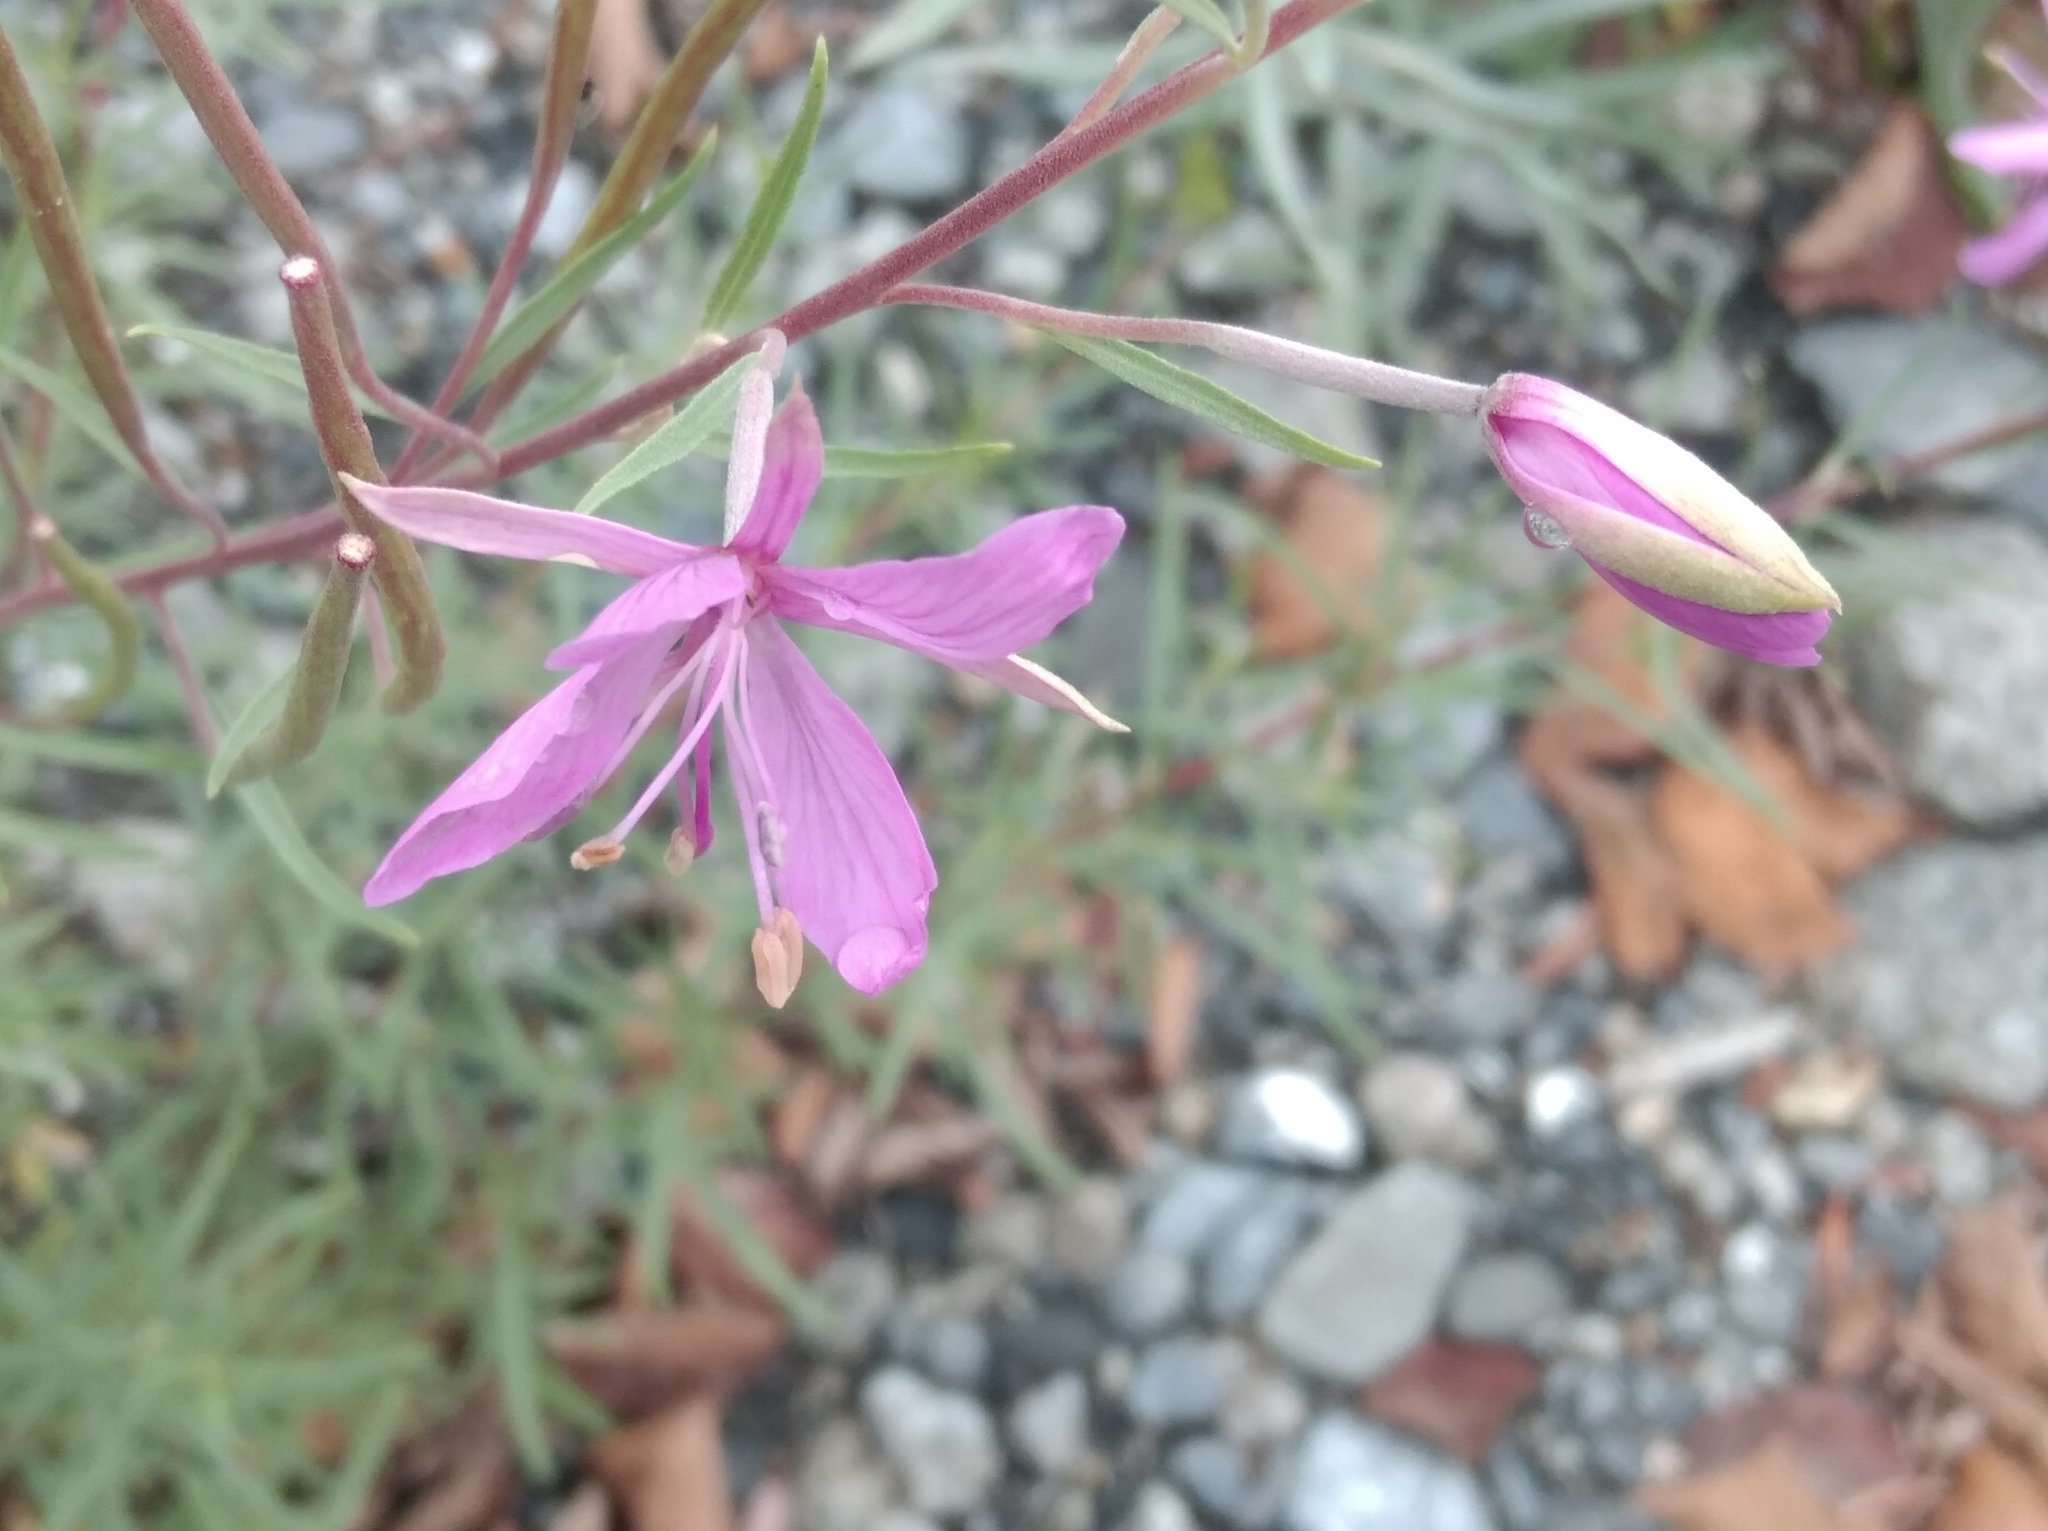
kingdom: Plantae
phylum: Tracheophyta
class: Magnoliopsida
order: Myrtales
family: Onagraceae
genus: Chamaenerion
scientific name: Chamaenerion dodonaei
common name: Rosemary-leaved willowherb
